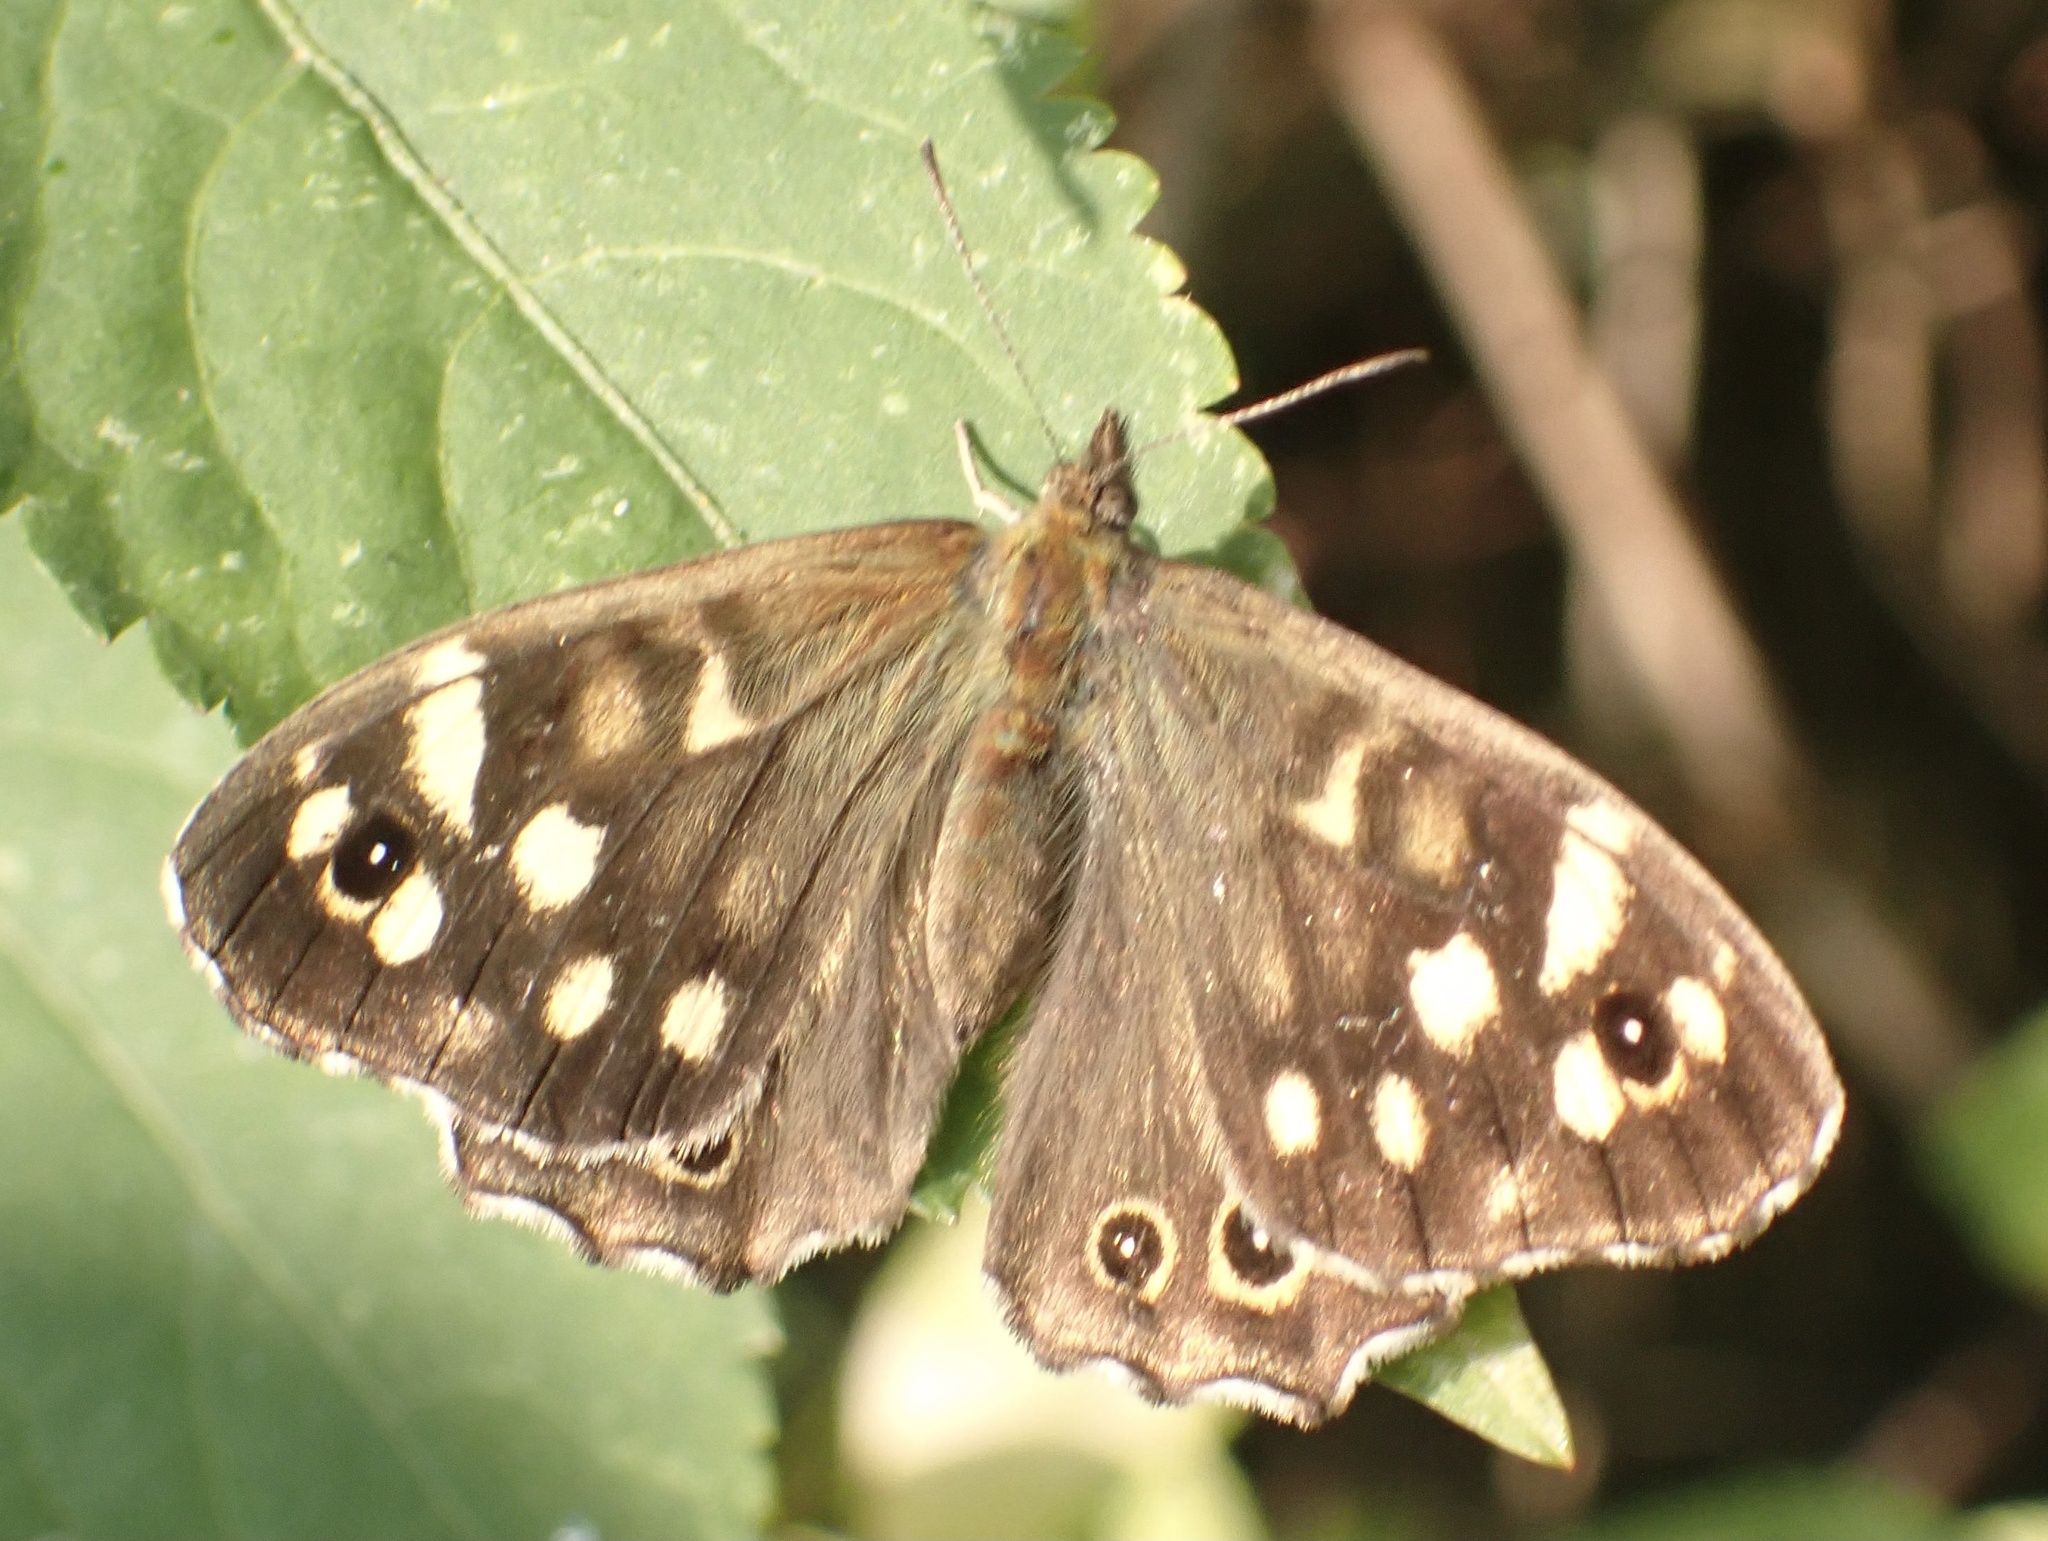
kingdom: Animalia
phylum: Arthropoda
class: Insecta
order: Lepidoptera
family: Nymphalidae
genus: Pararge
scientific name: Pararge aegeria
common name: Speckled wood
